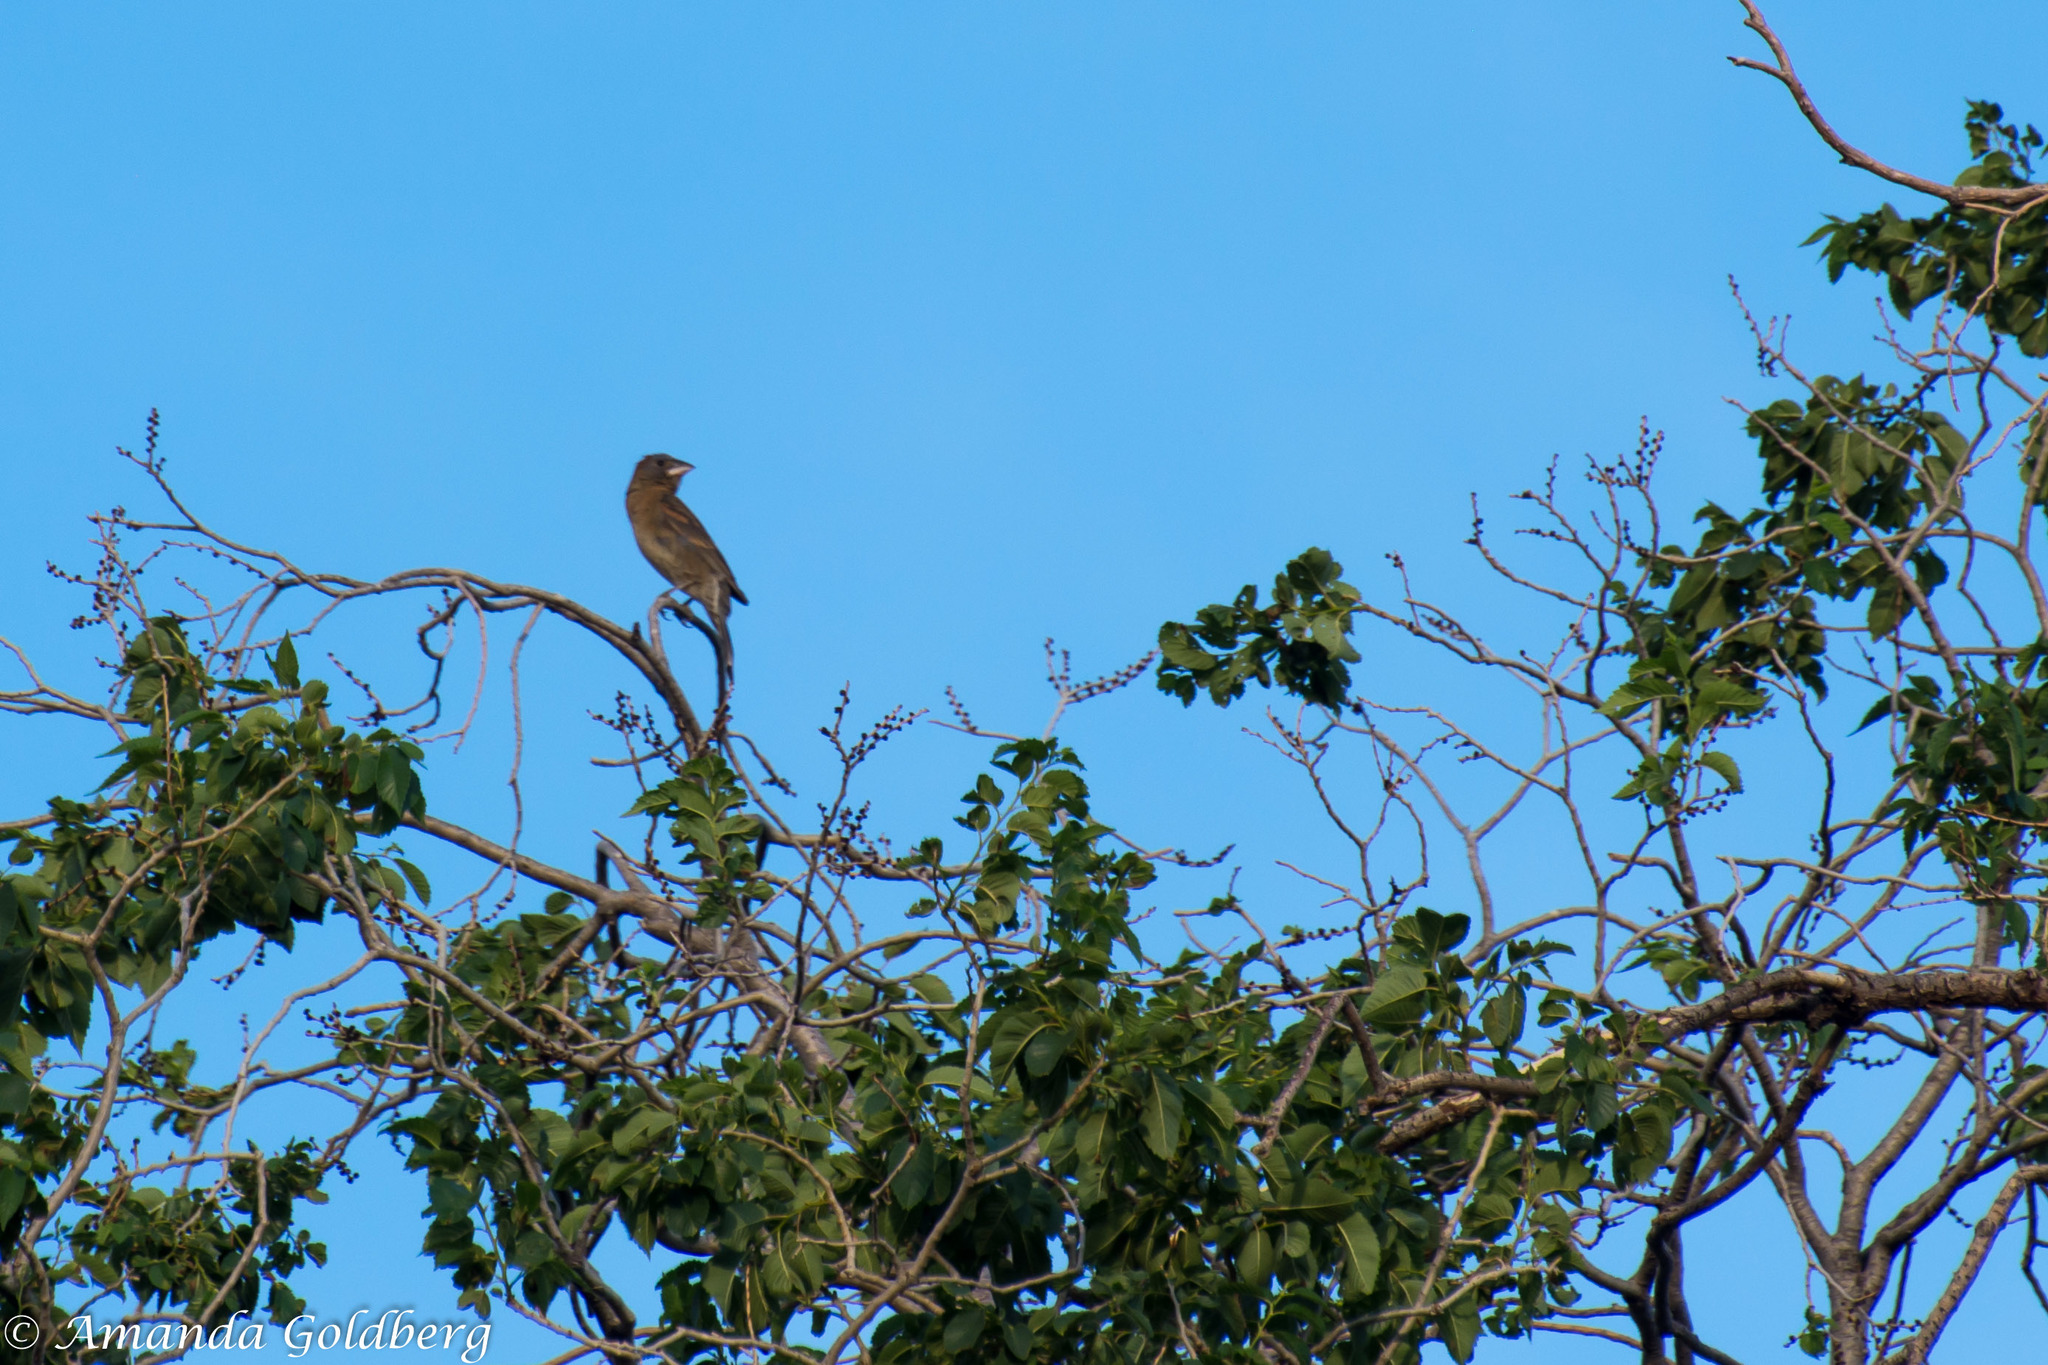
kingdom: Animalia
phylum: Chordata
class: Aves
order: Passeriformes
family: Cardinalidae
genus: Passerina
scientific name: Passerina caerulea
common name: Blue grosbeak
